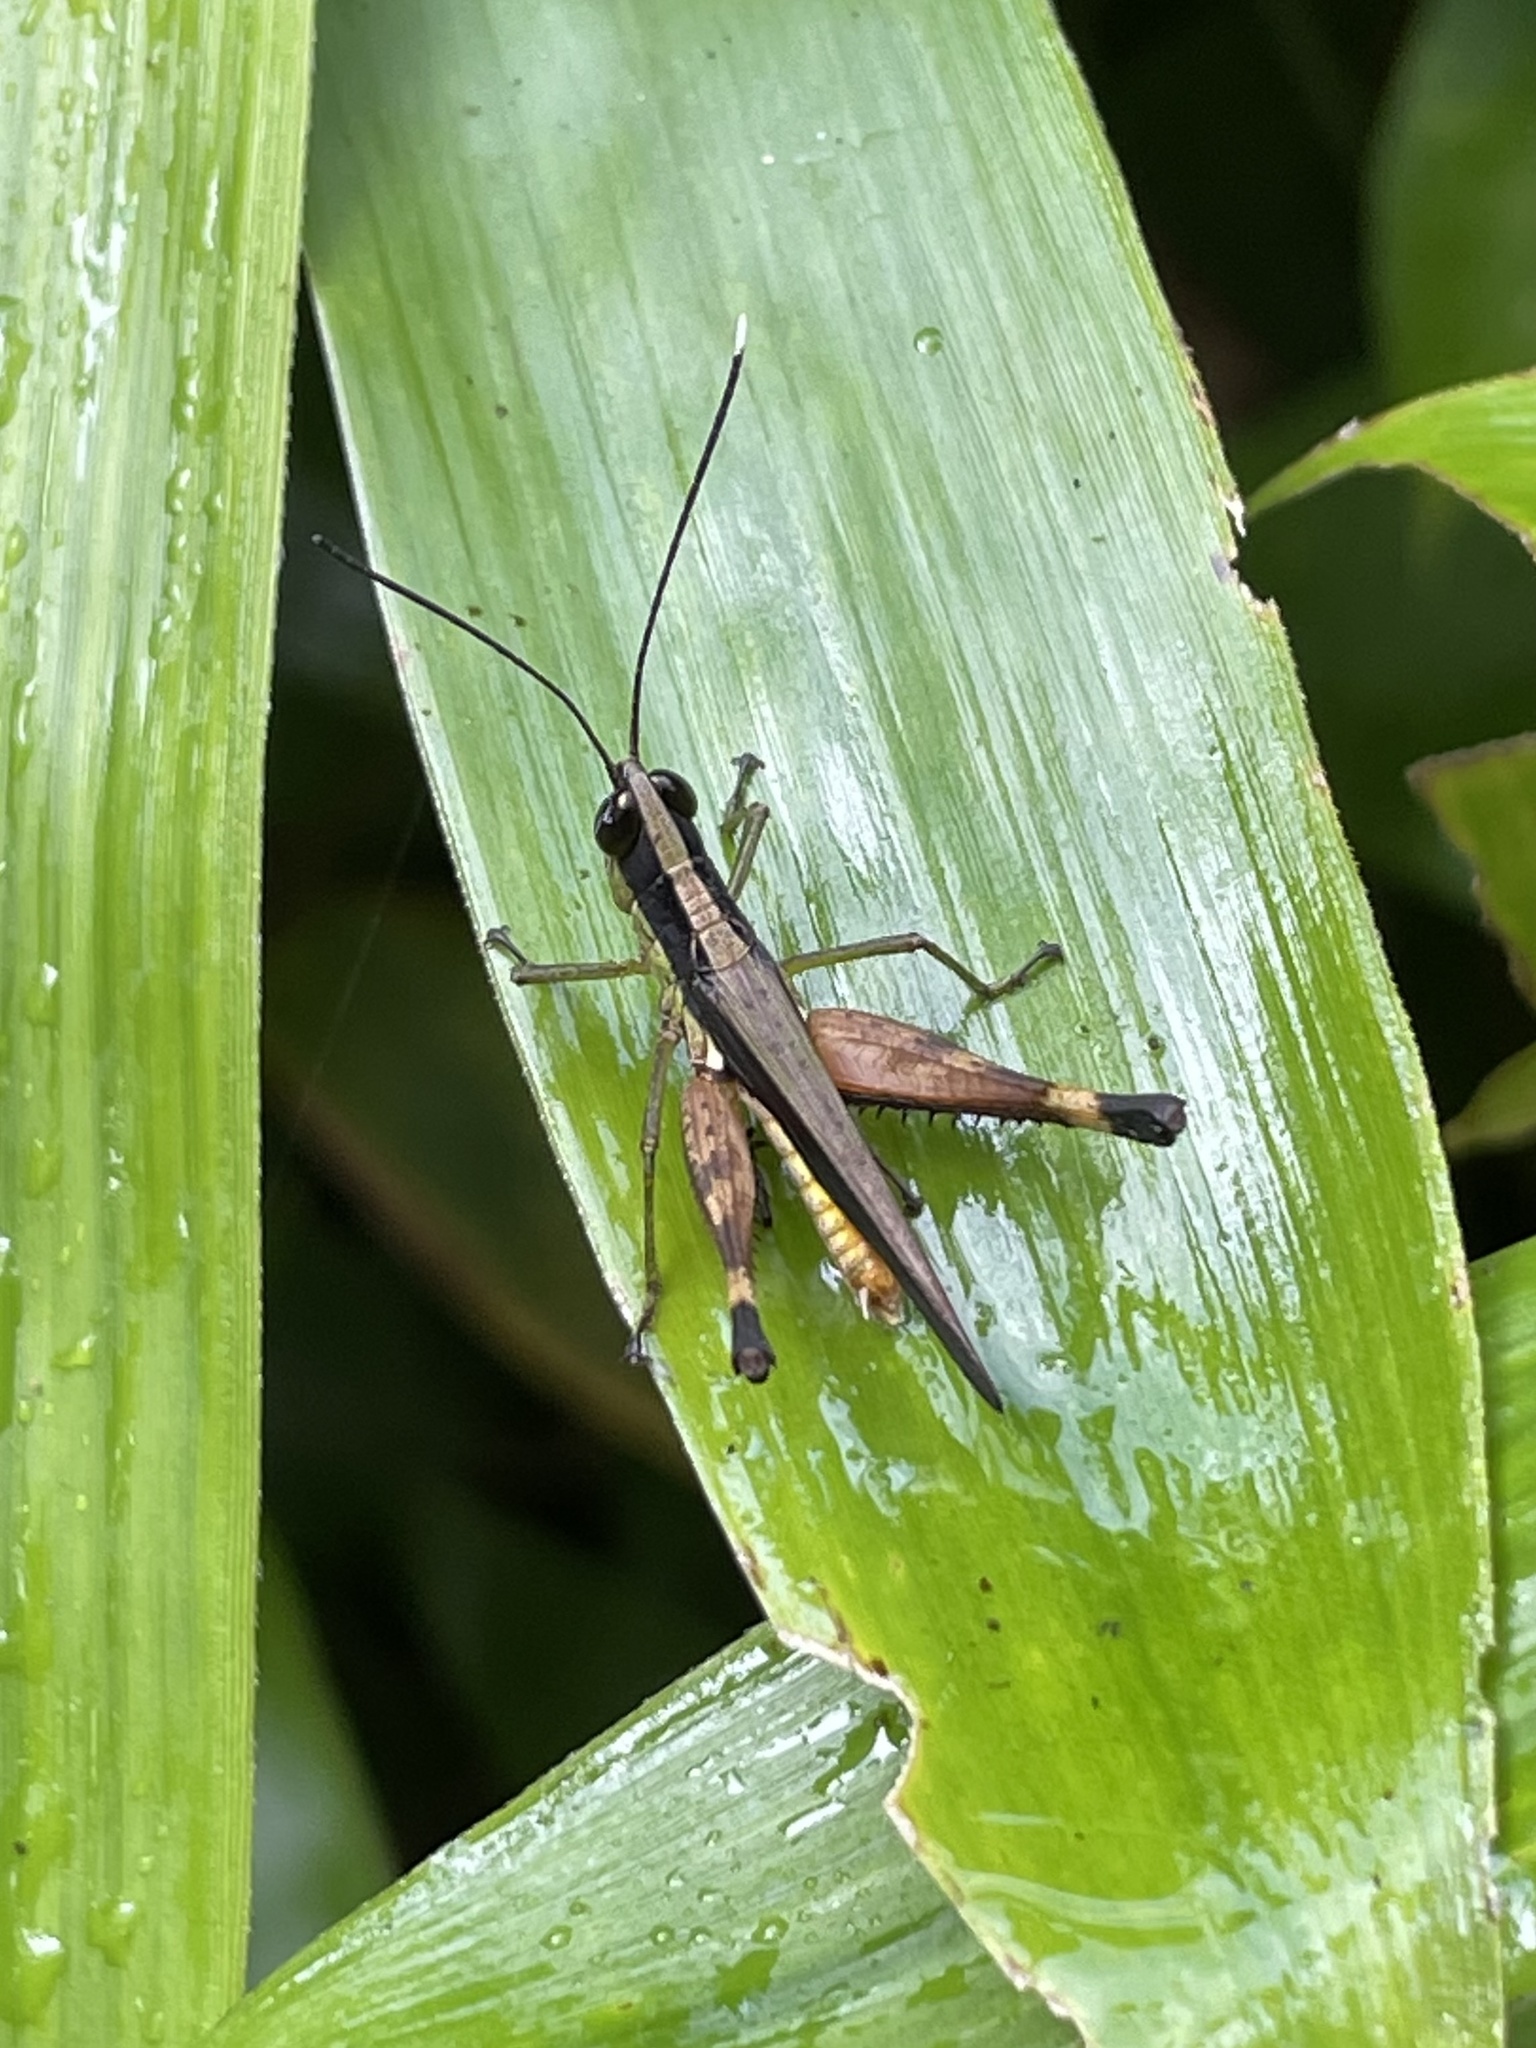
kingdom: Animalia
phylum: Arthropoda
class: Insecta
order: Orthoptera
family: Acrididae
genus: Compsacris
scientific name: Compsacris pulcher
